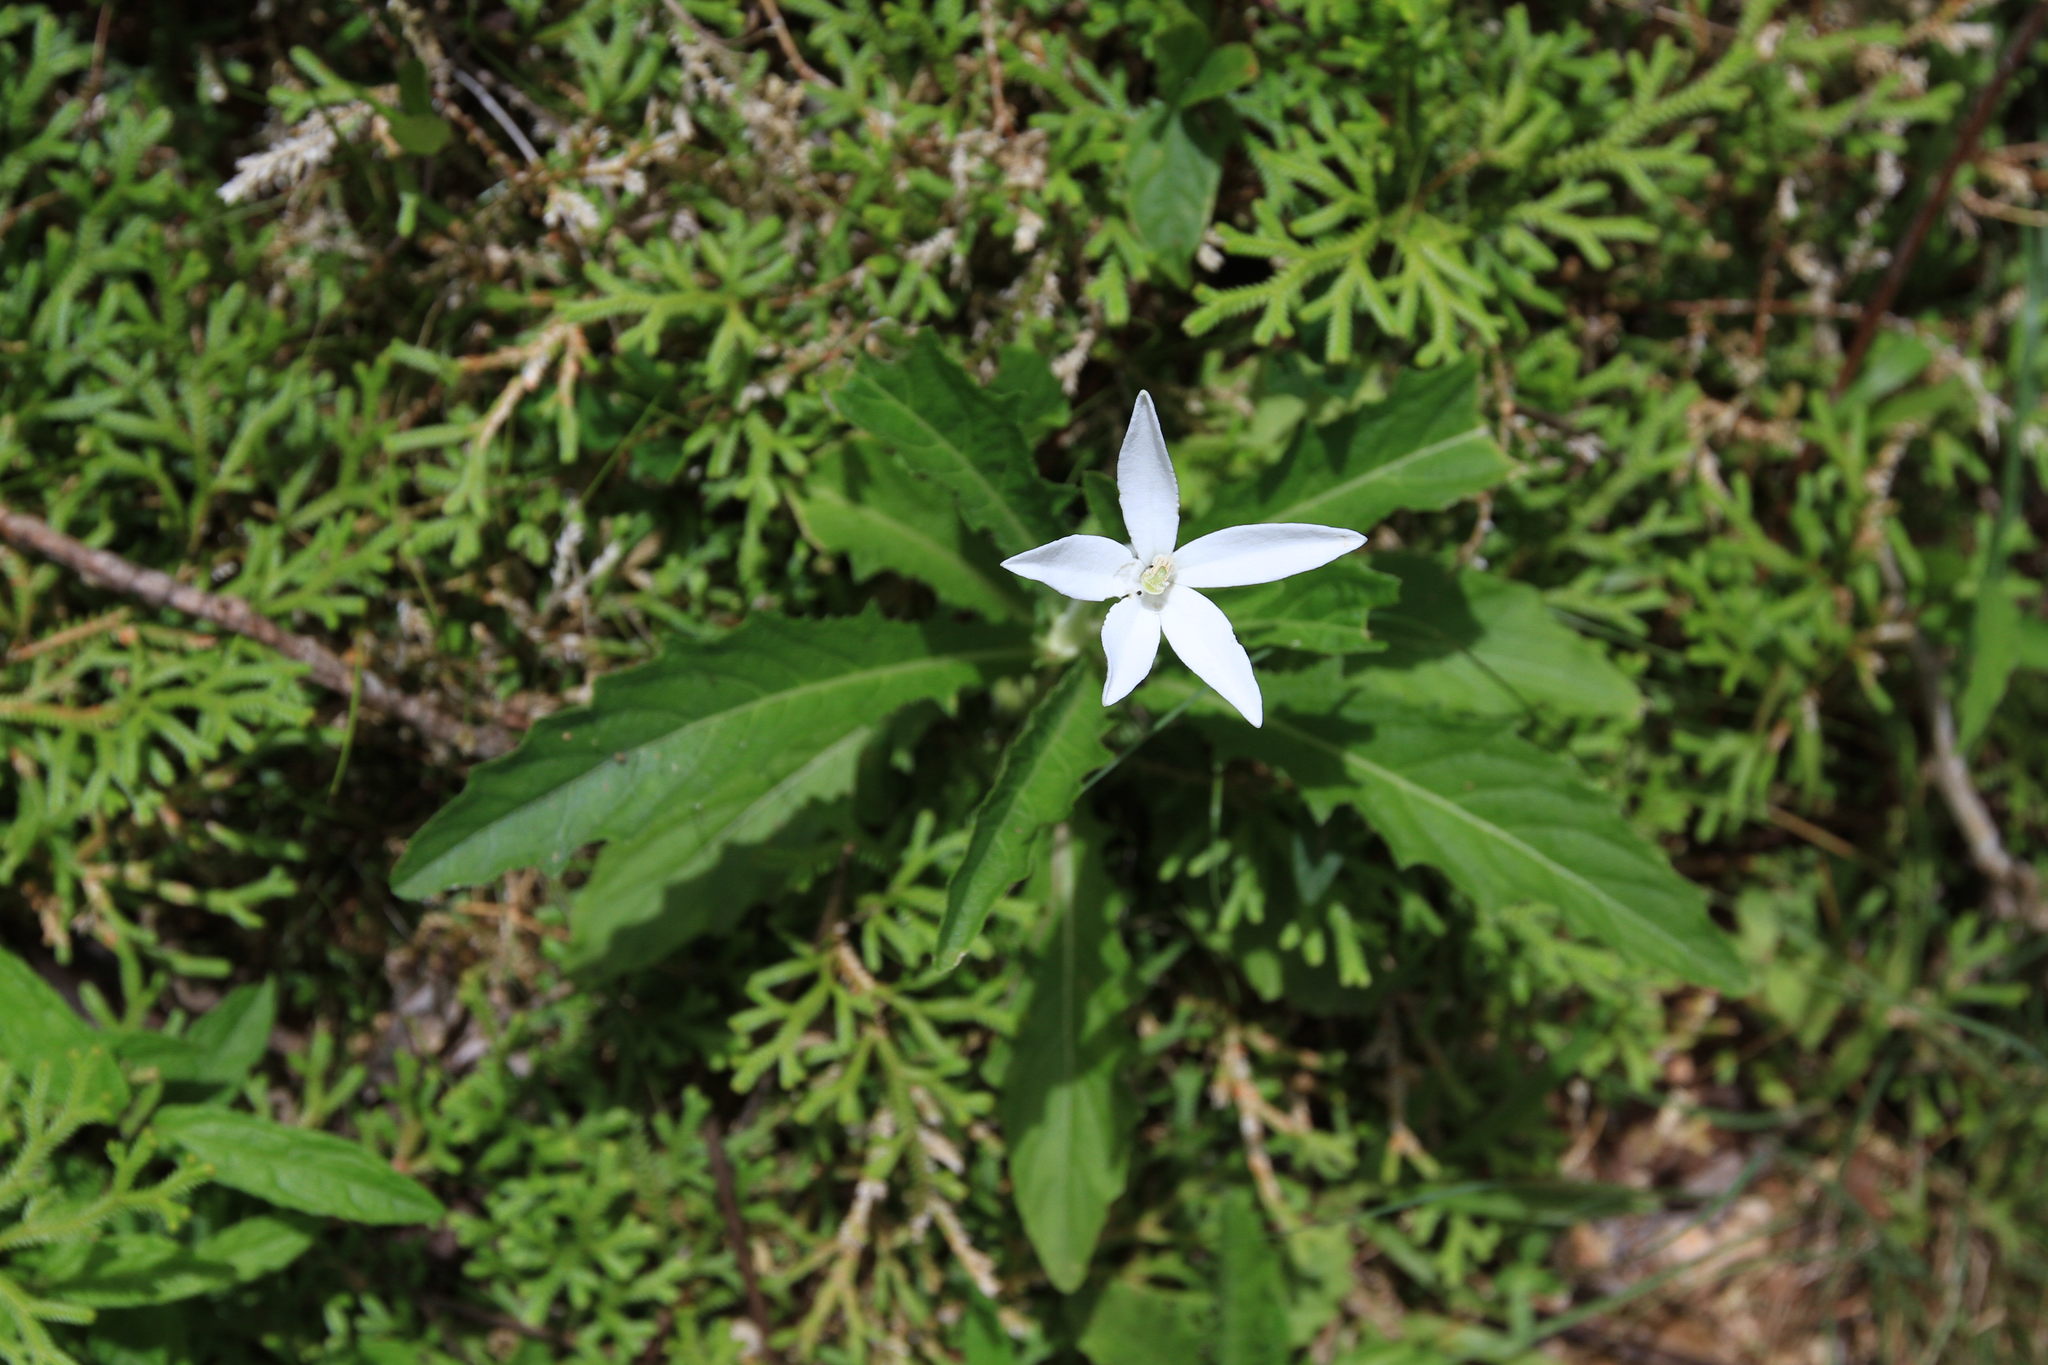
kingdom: Plantae
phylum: Tracheophyta
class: Magnoliopsida
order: Asterales
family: Campanulaceae
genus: Hippobroma
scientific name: Hippobroma longiflora
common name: Madamfate
